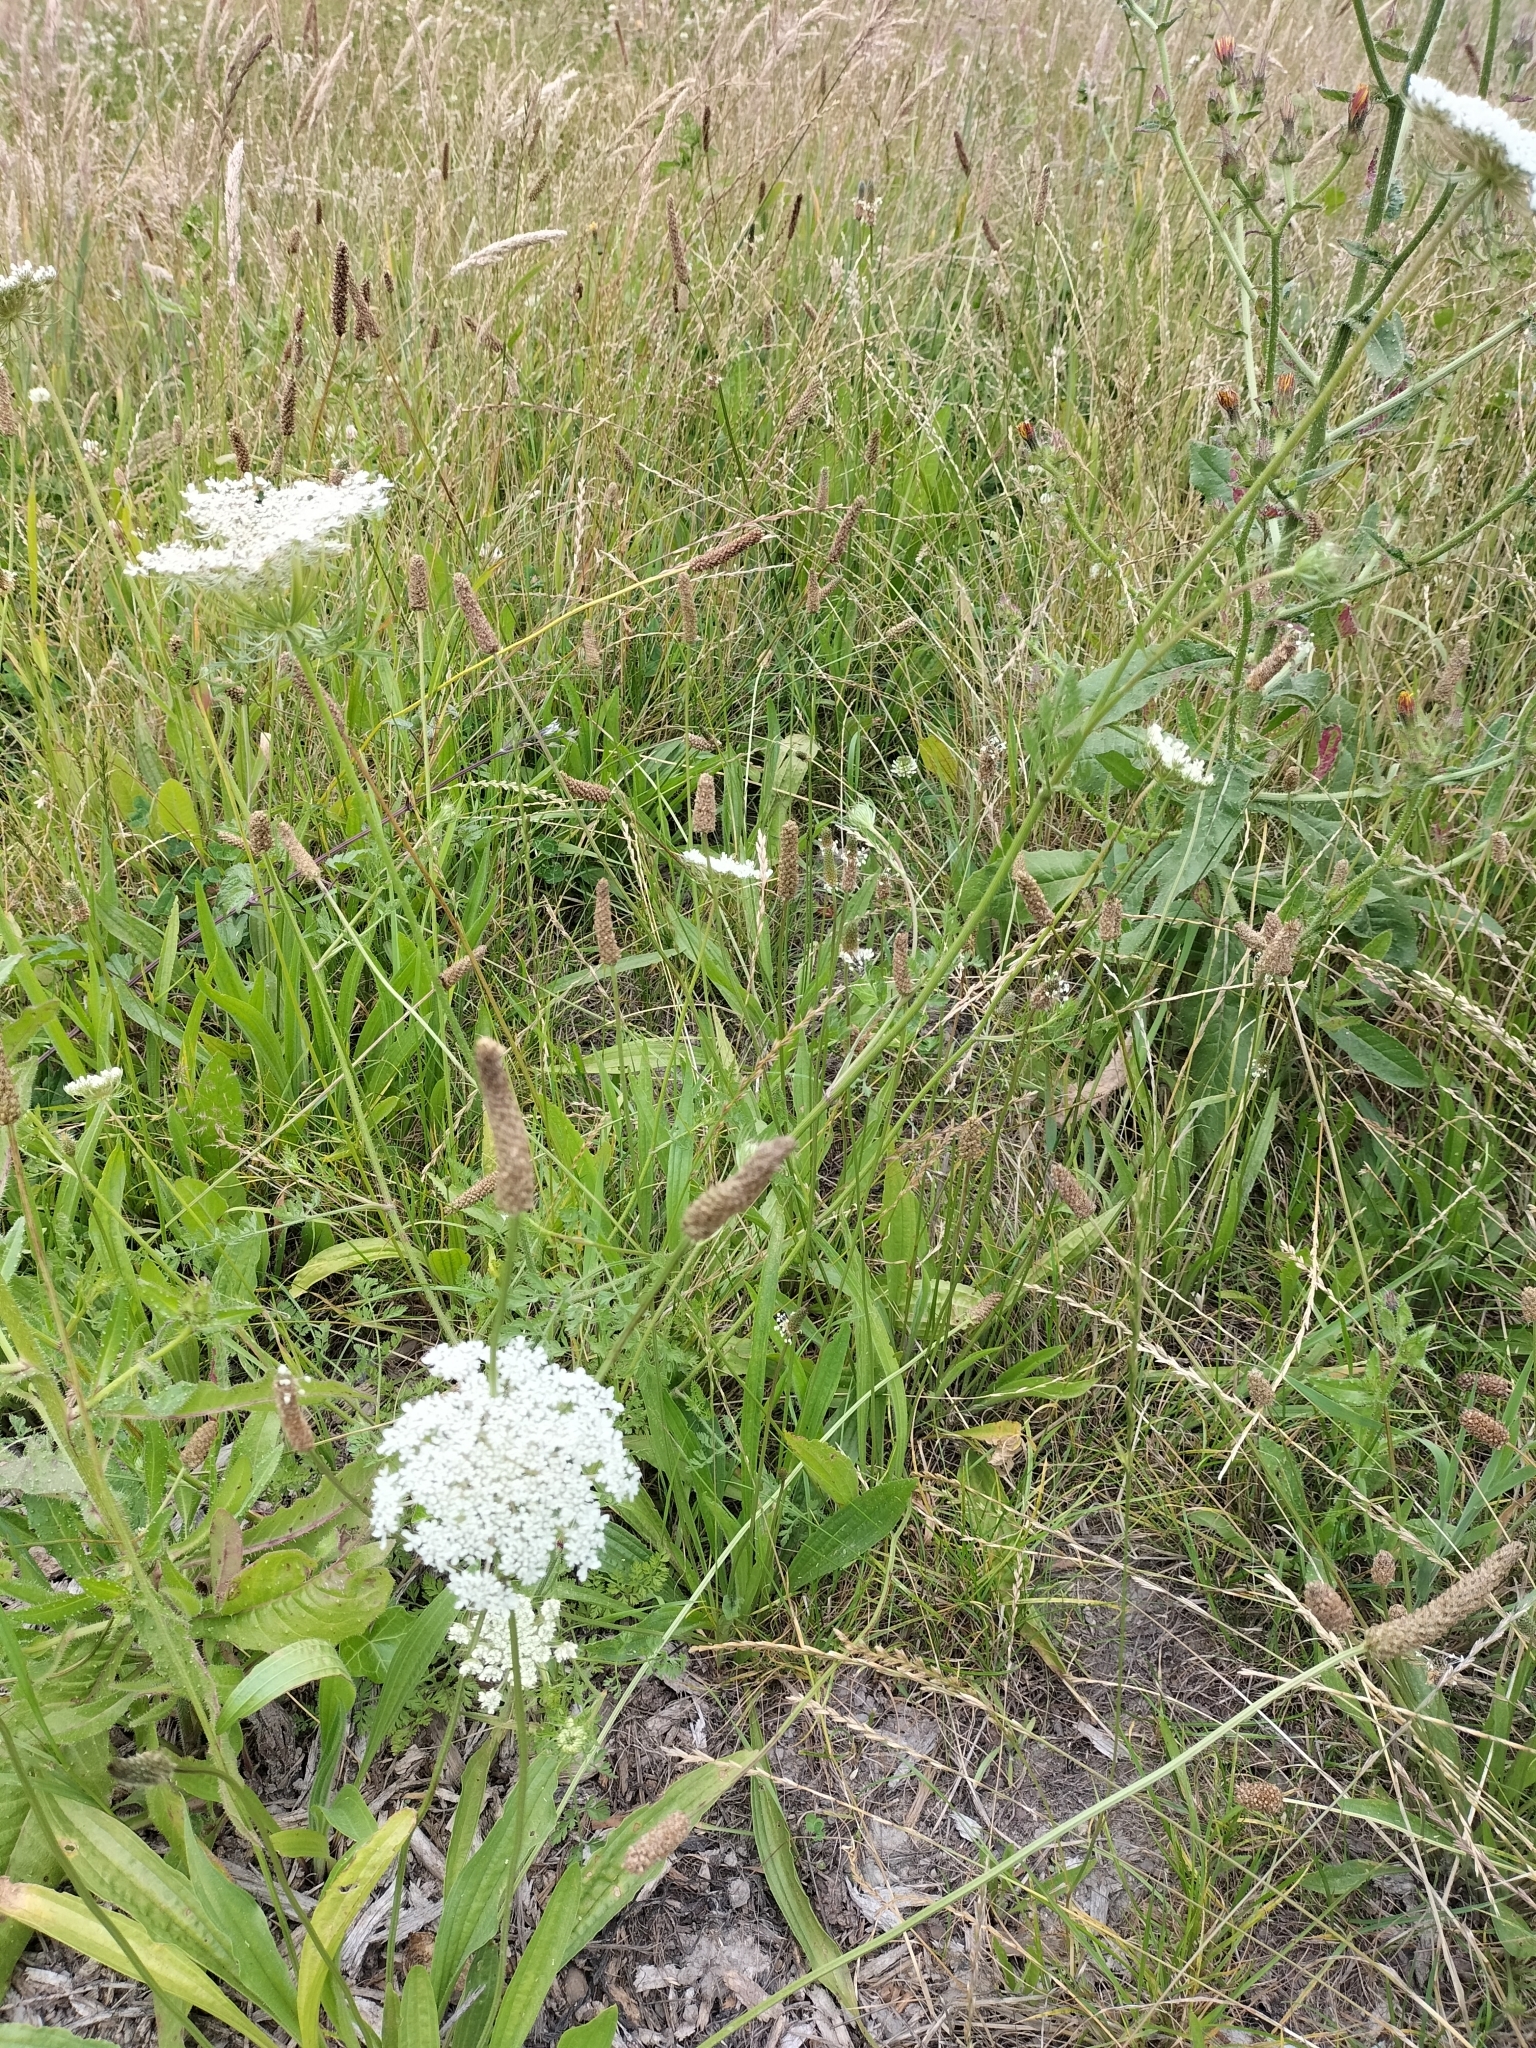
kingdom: Plantae
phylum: Tracheophyta
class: Magnoliopsida
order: Apiales
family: Apiaceae
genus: Daucus
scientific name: Daucus carota
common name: Wild carrot
